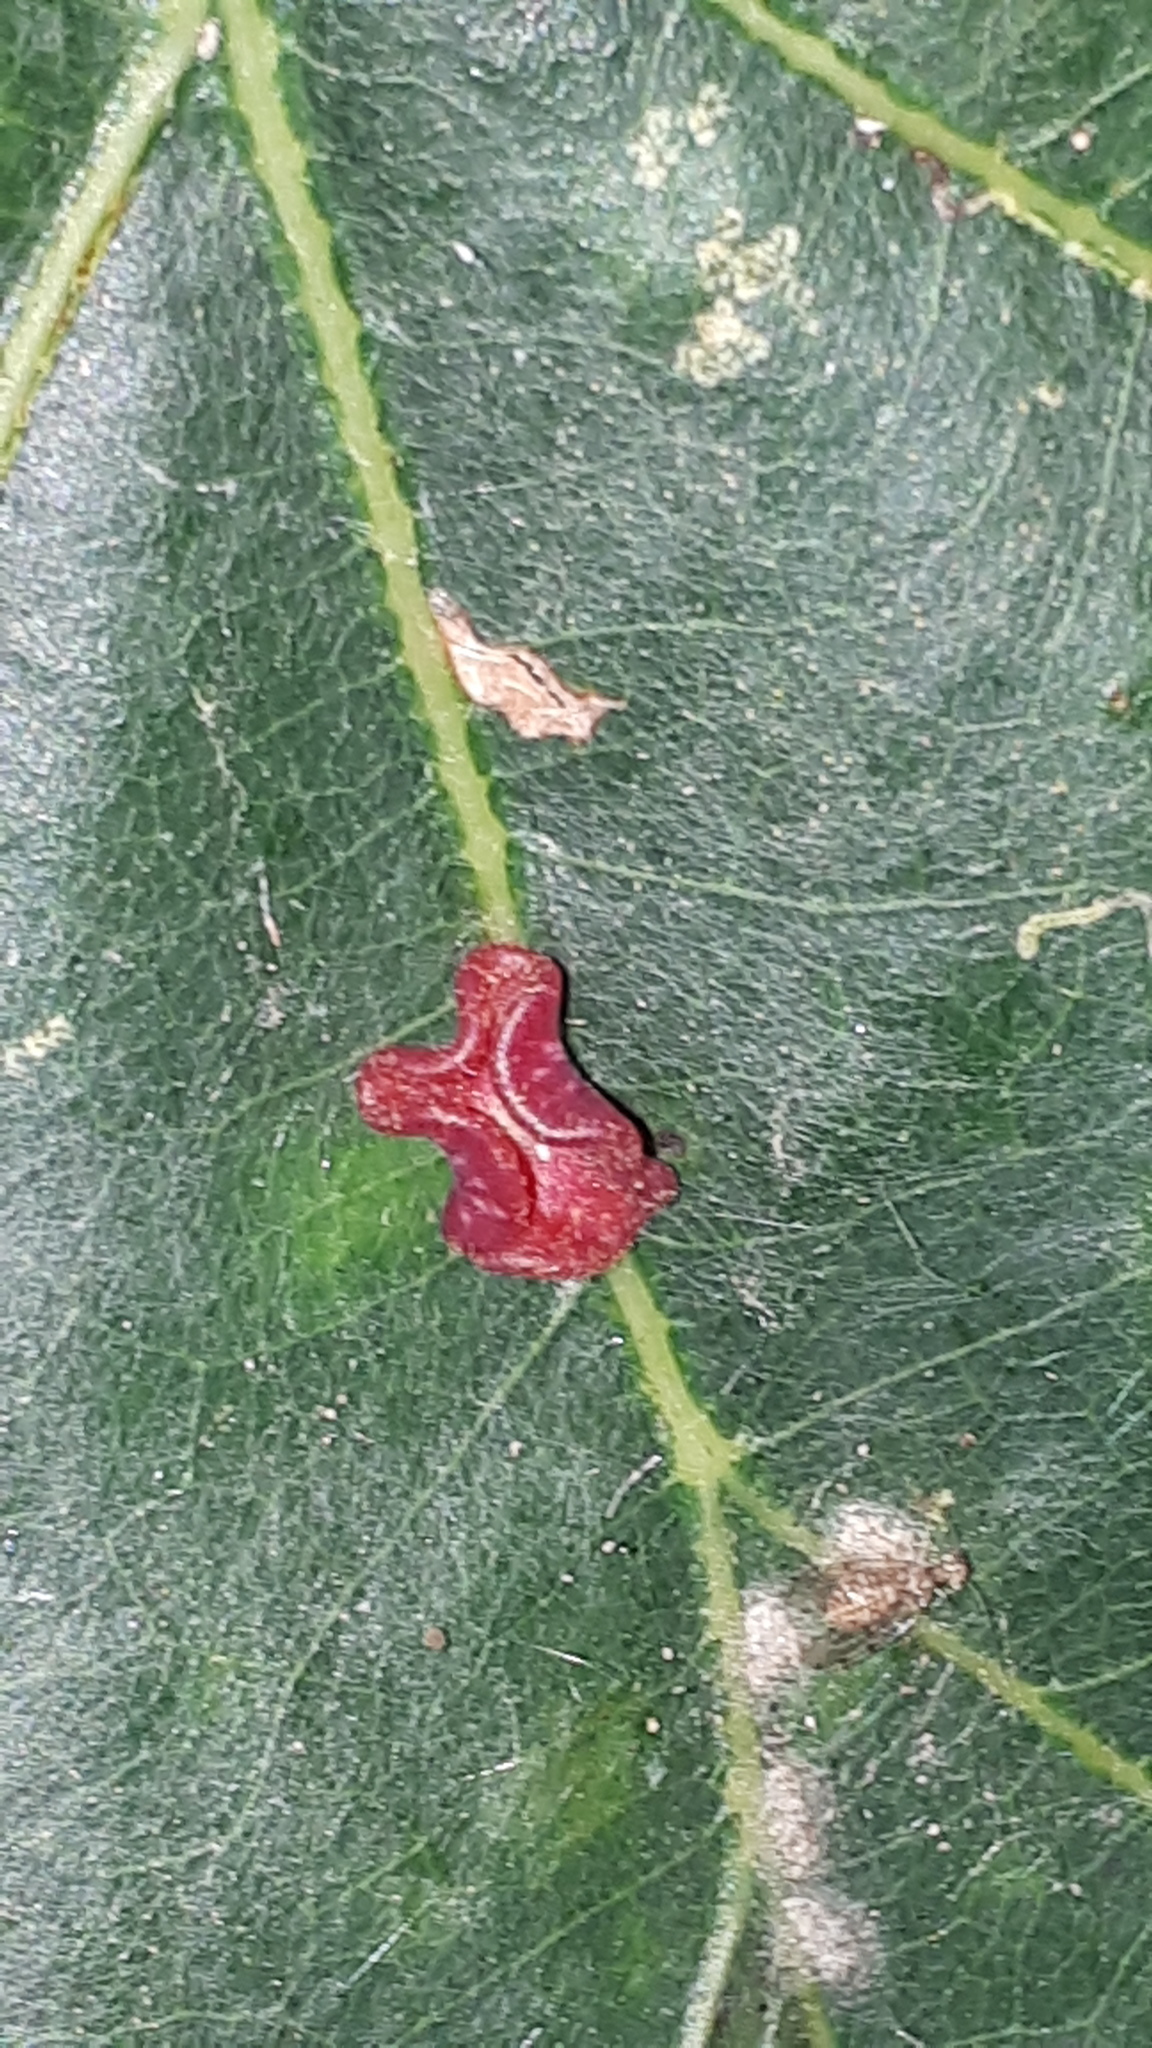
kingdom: Animalia
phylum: Arthropoda
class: Insecta
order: Hymenoptera
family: Cynipidae
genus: Neuroterus
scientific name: Neuroterus albipes
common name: Smooth spangle gall
